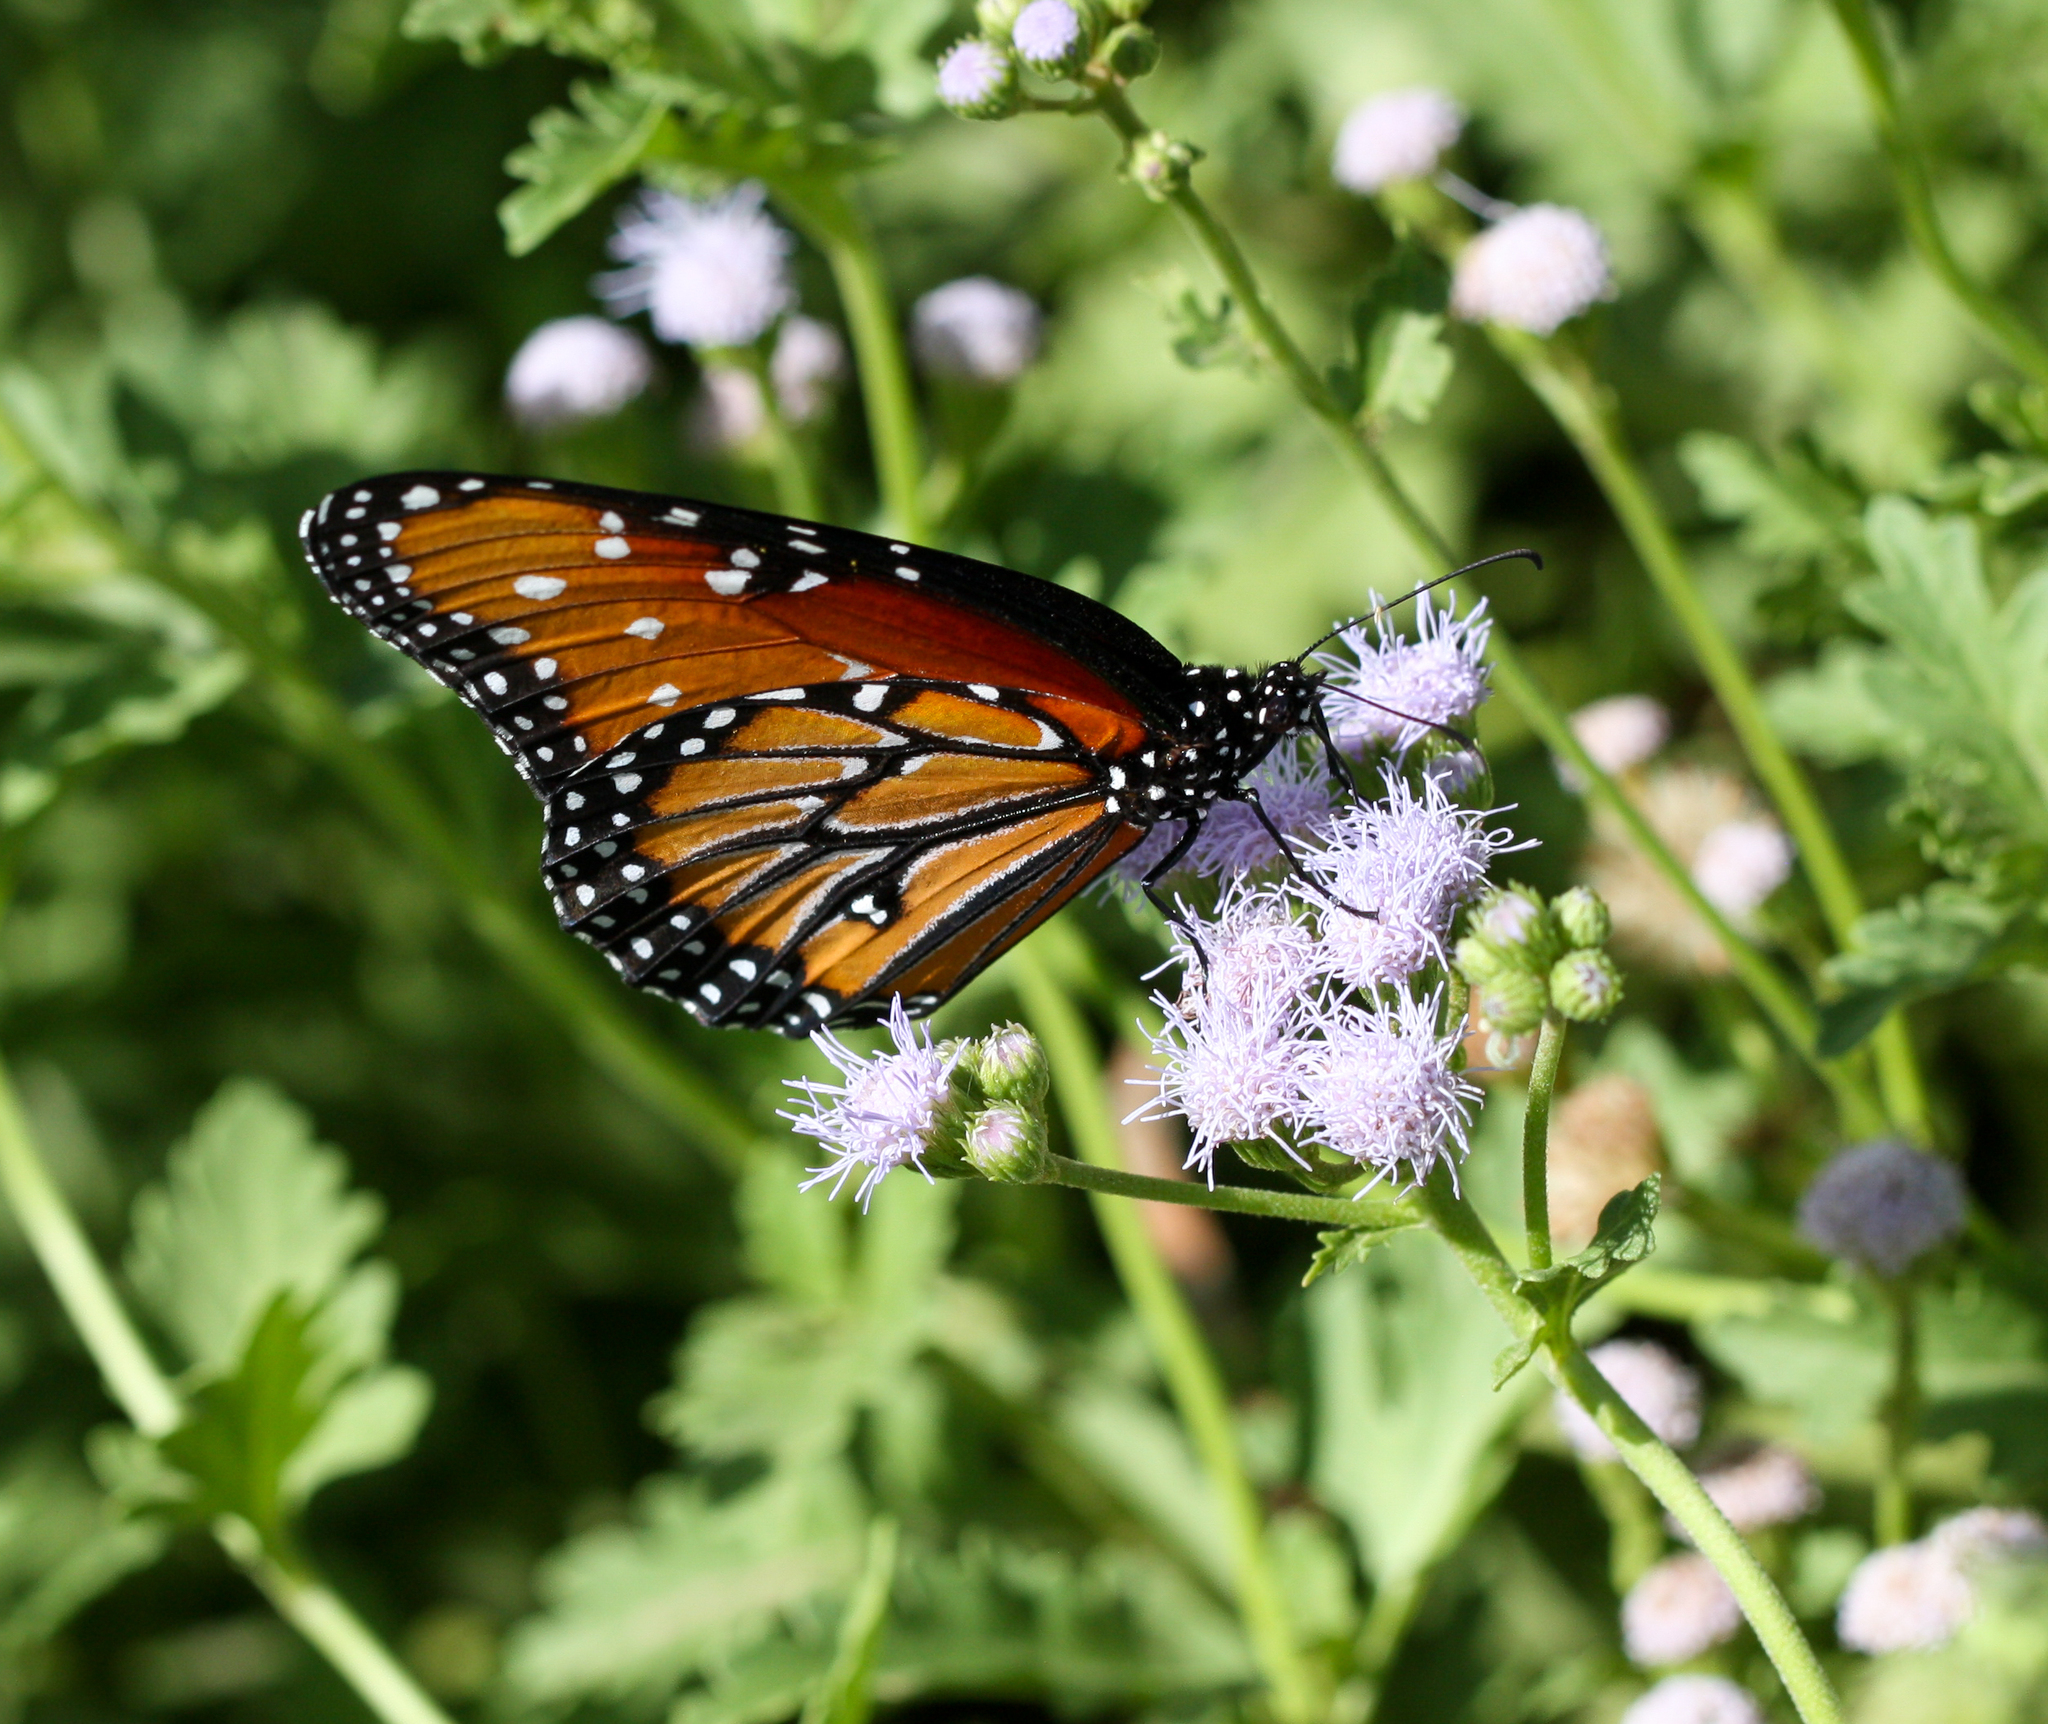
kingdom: Animalia
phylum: Arthropoda
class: Insecta
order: Lepidoptera
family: Nymphalidae
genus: Danaus
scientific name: Danaus gilippus
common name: Queen
